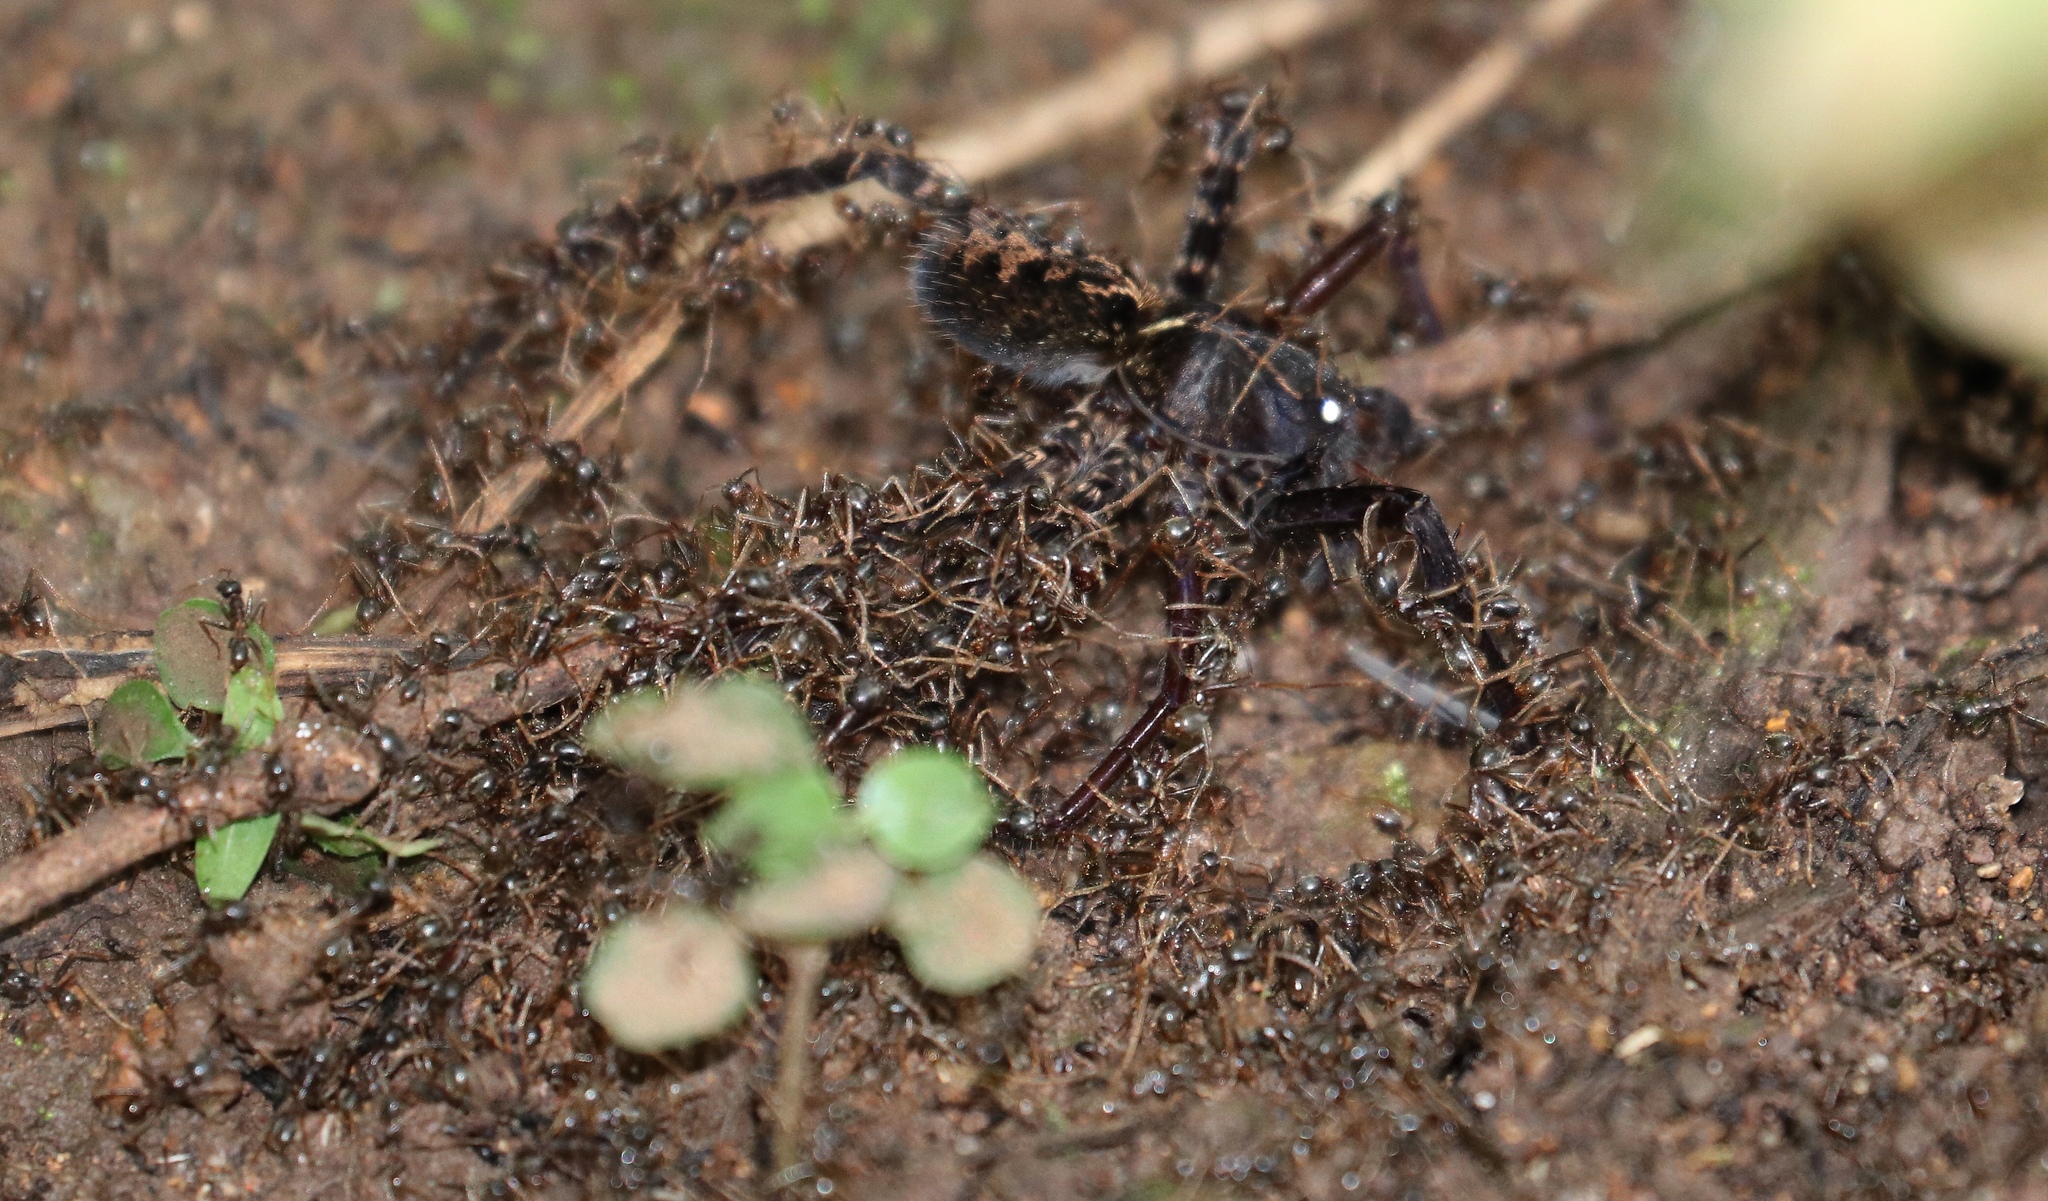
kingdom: Animalia
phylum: Arthropoda
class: Insecta
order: Hymenoptera
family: Formicidae
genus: Labidus
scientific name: Labidus praedator
